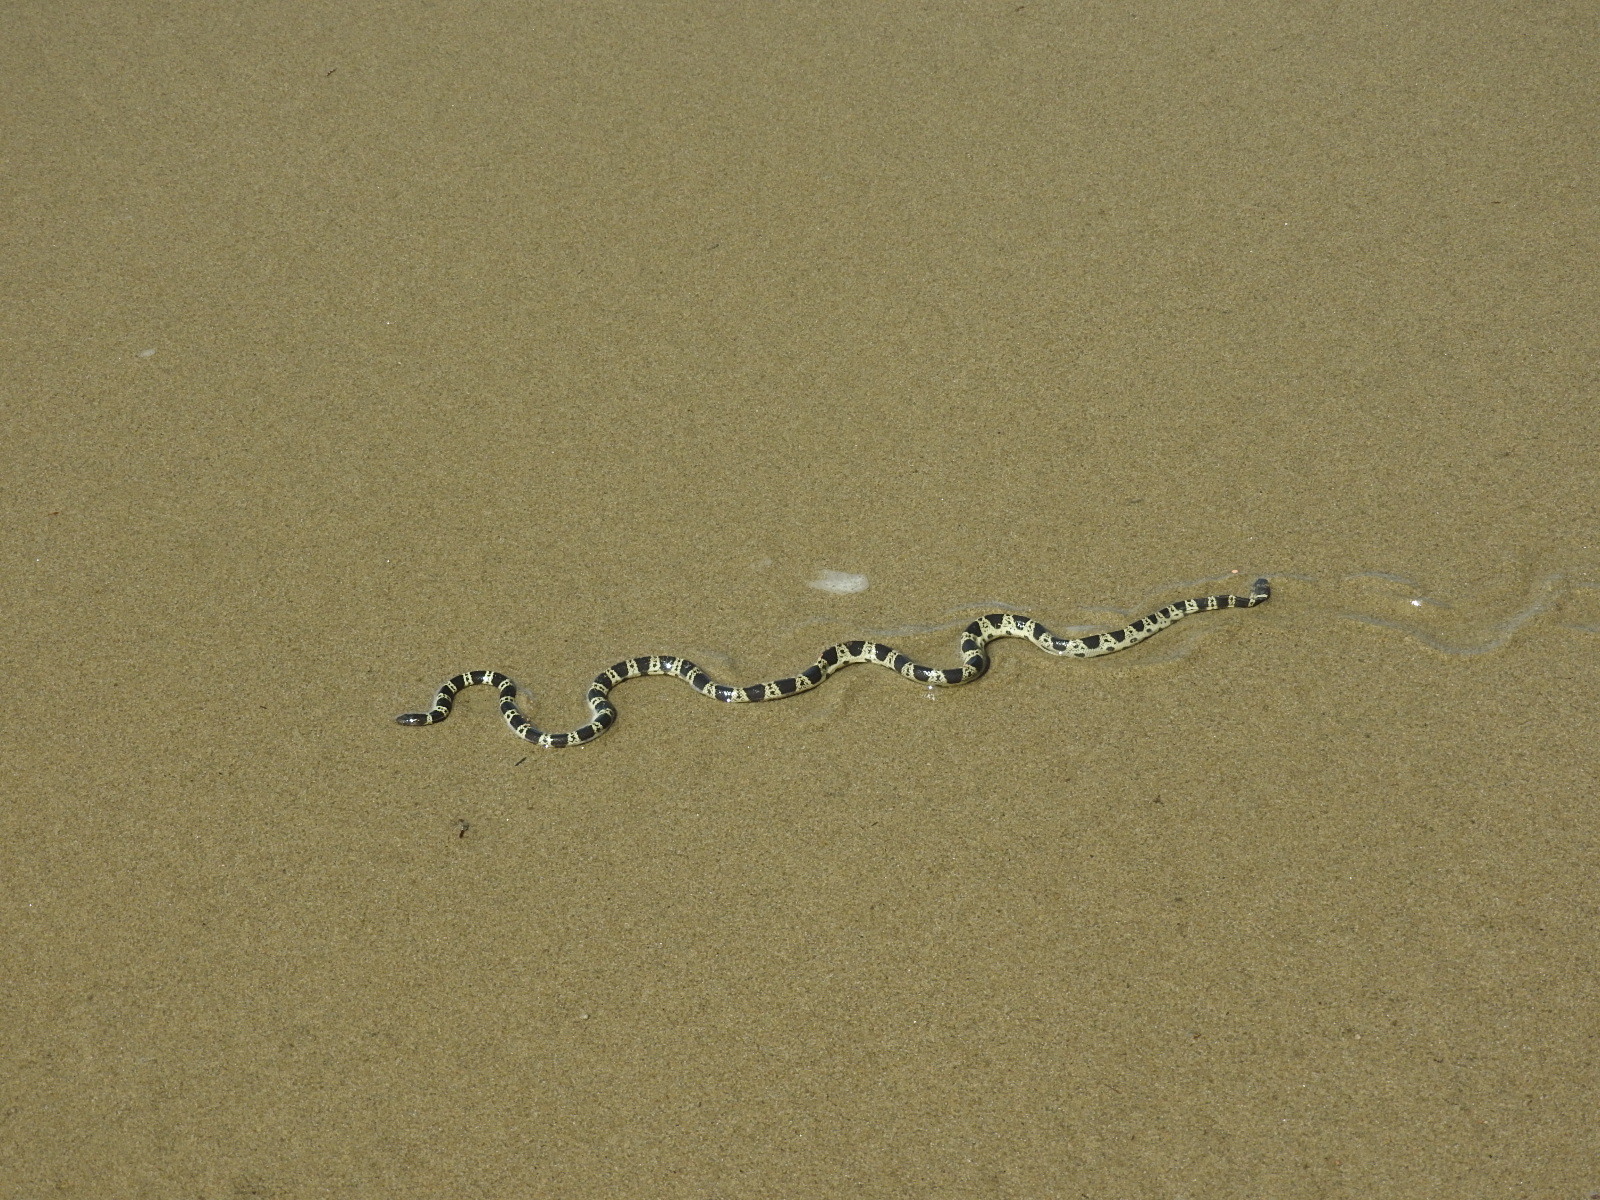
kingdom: Animalia
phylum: Chordata
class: Squamata
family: Elapidae
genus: Hydrophis
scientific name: Hydrophis elegans
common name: Bar-bellied sea snake
